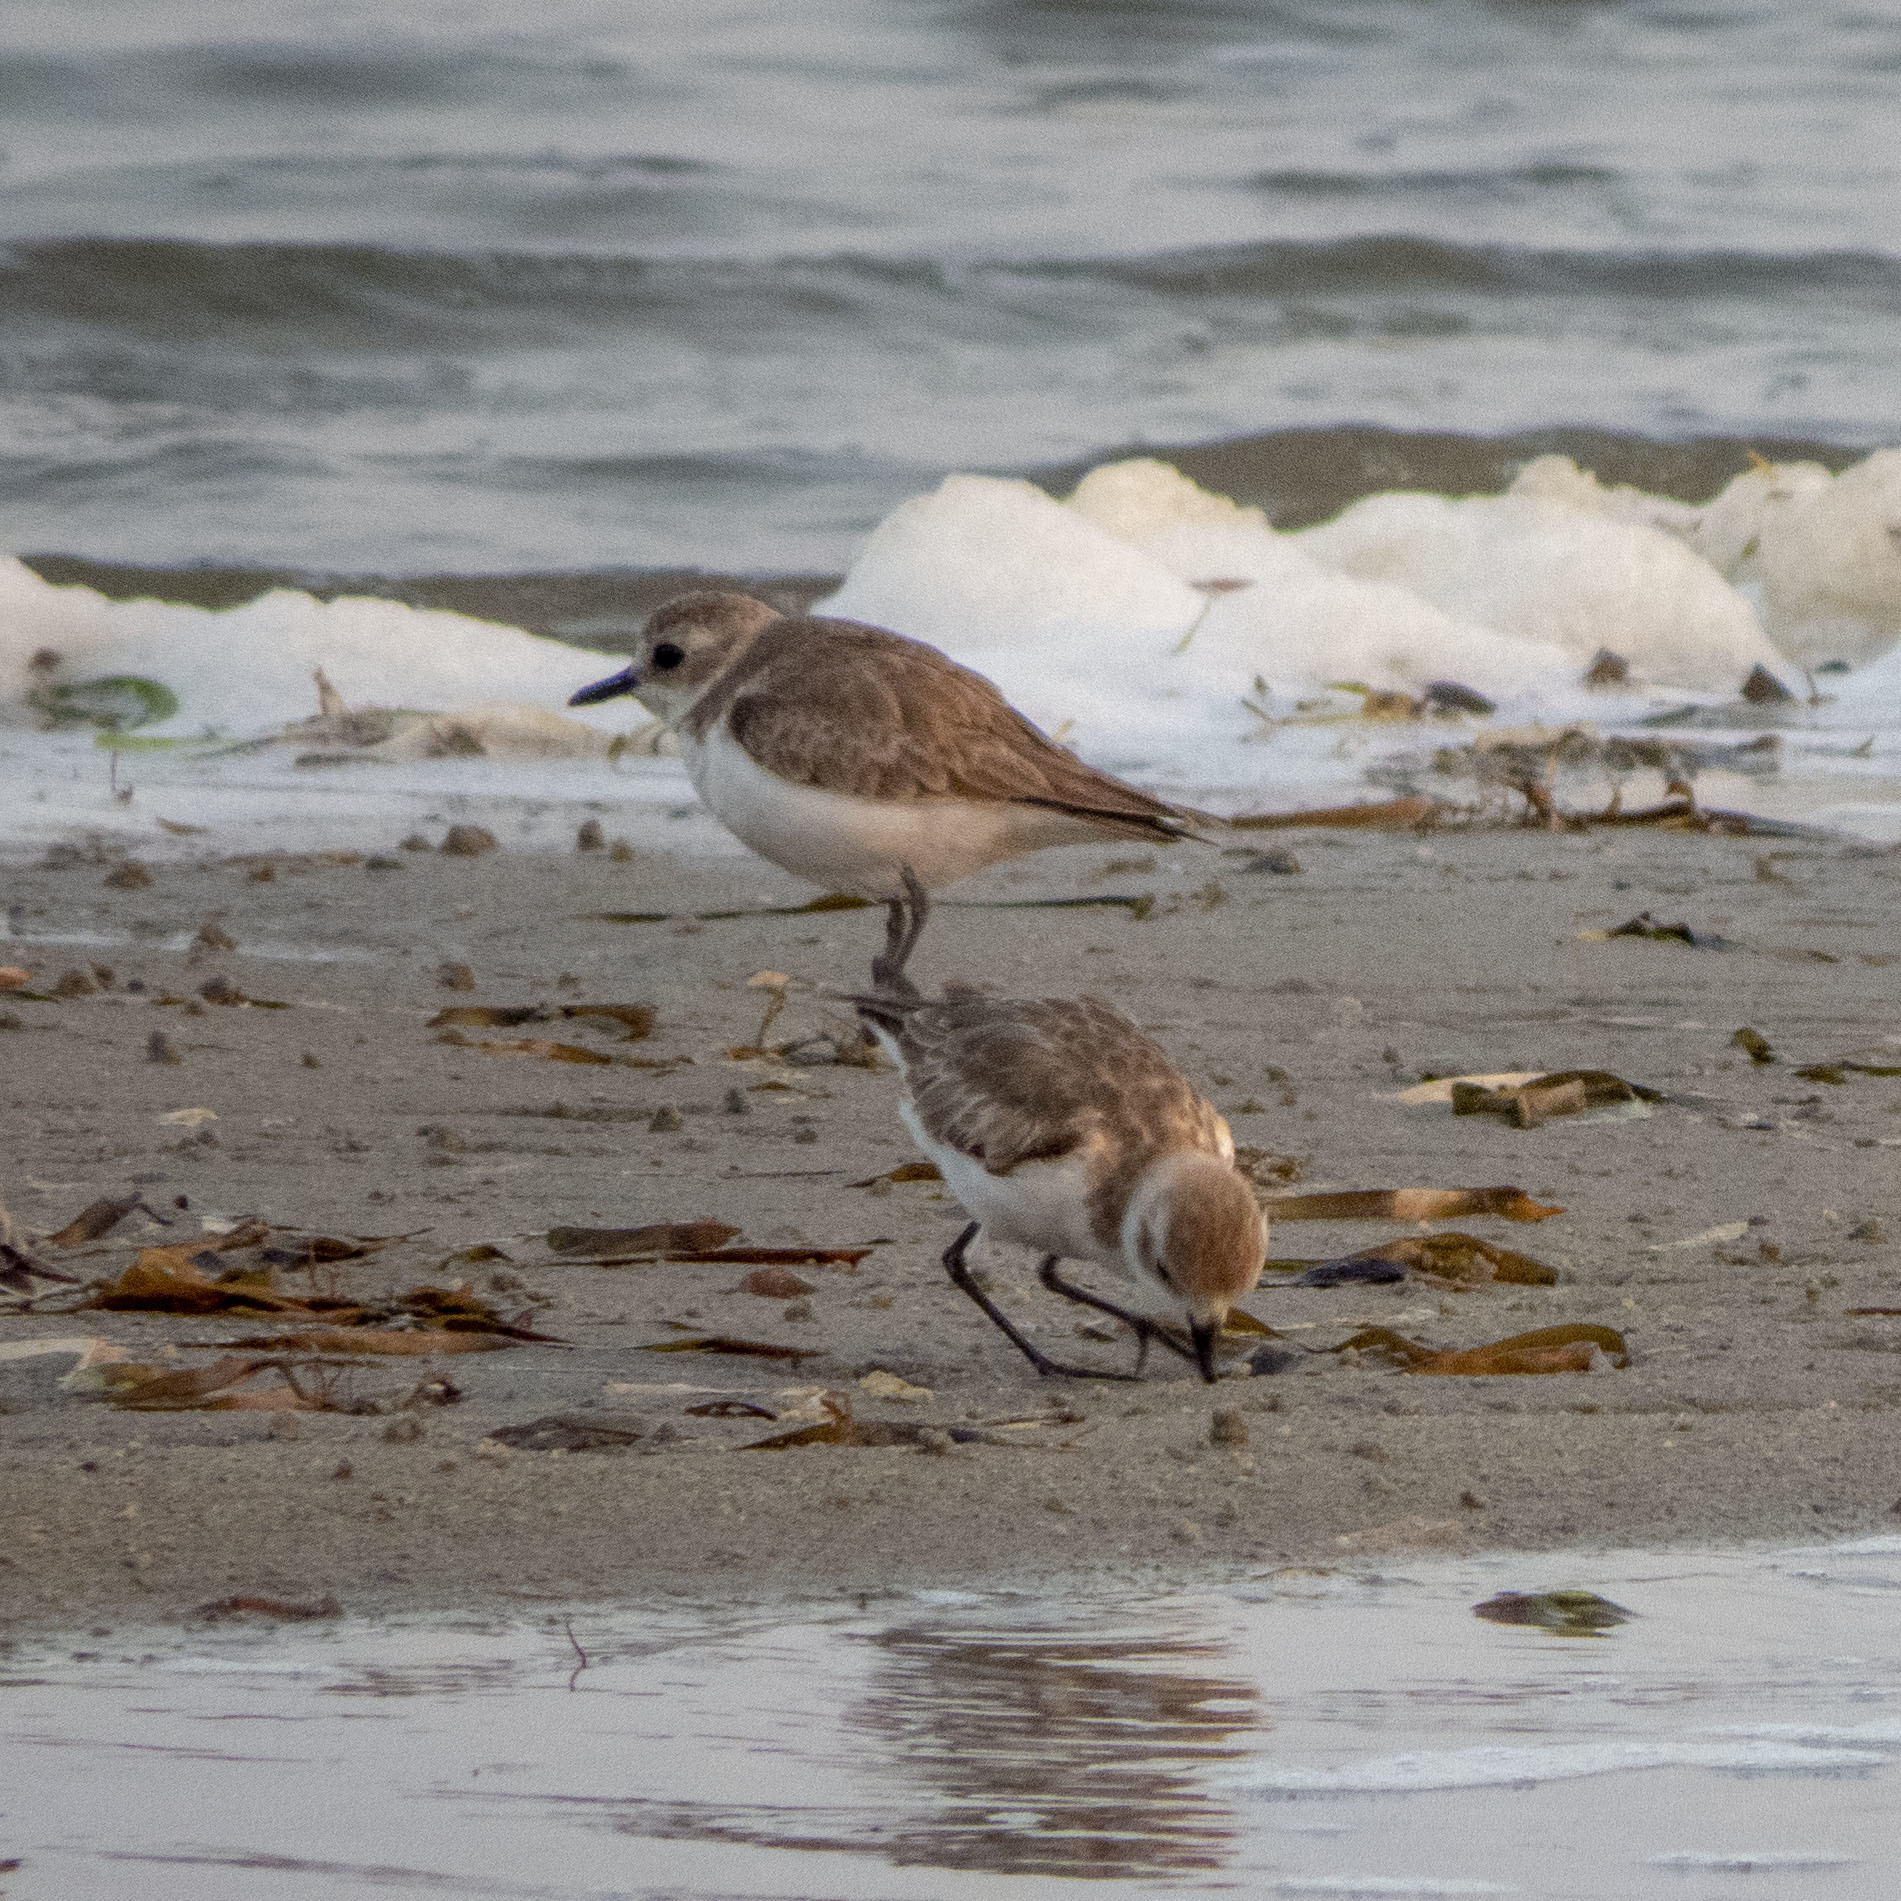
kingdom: Animalia
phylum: Chordata
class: Aves
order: Charadriiformes
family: Charadriidae
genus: Anarhynchus
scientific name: Anarhynchus
